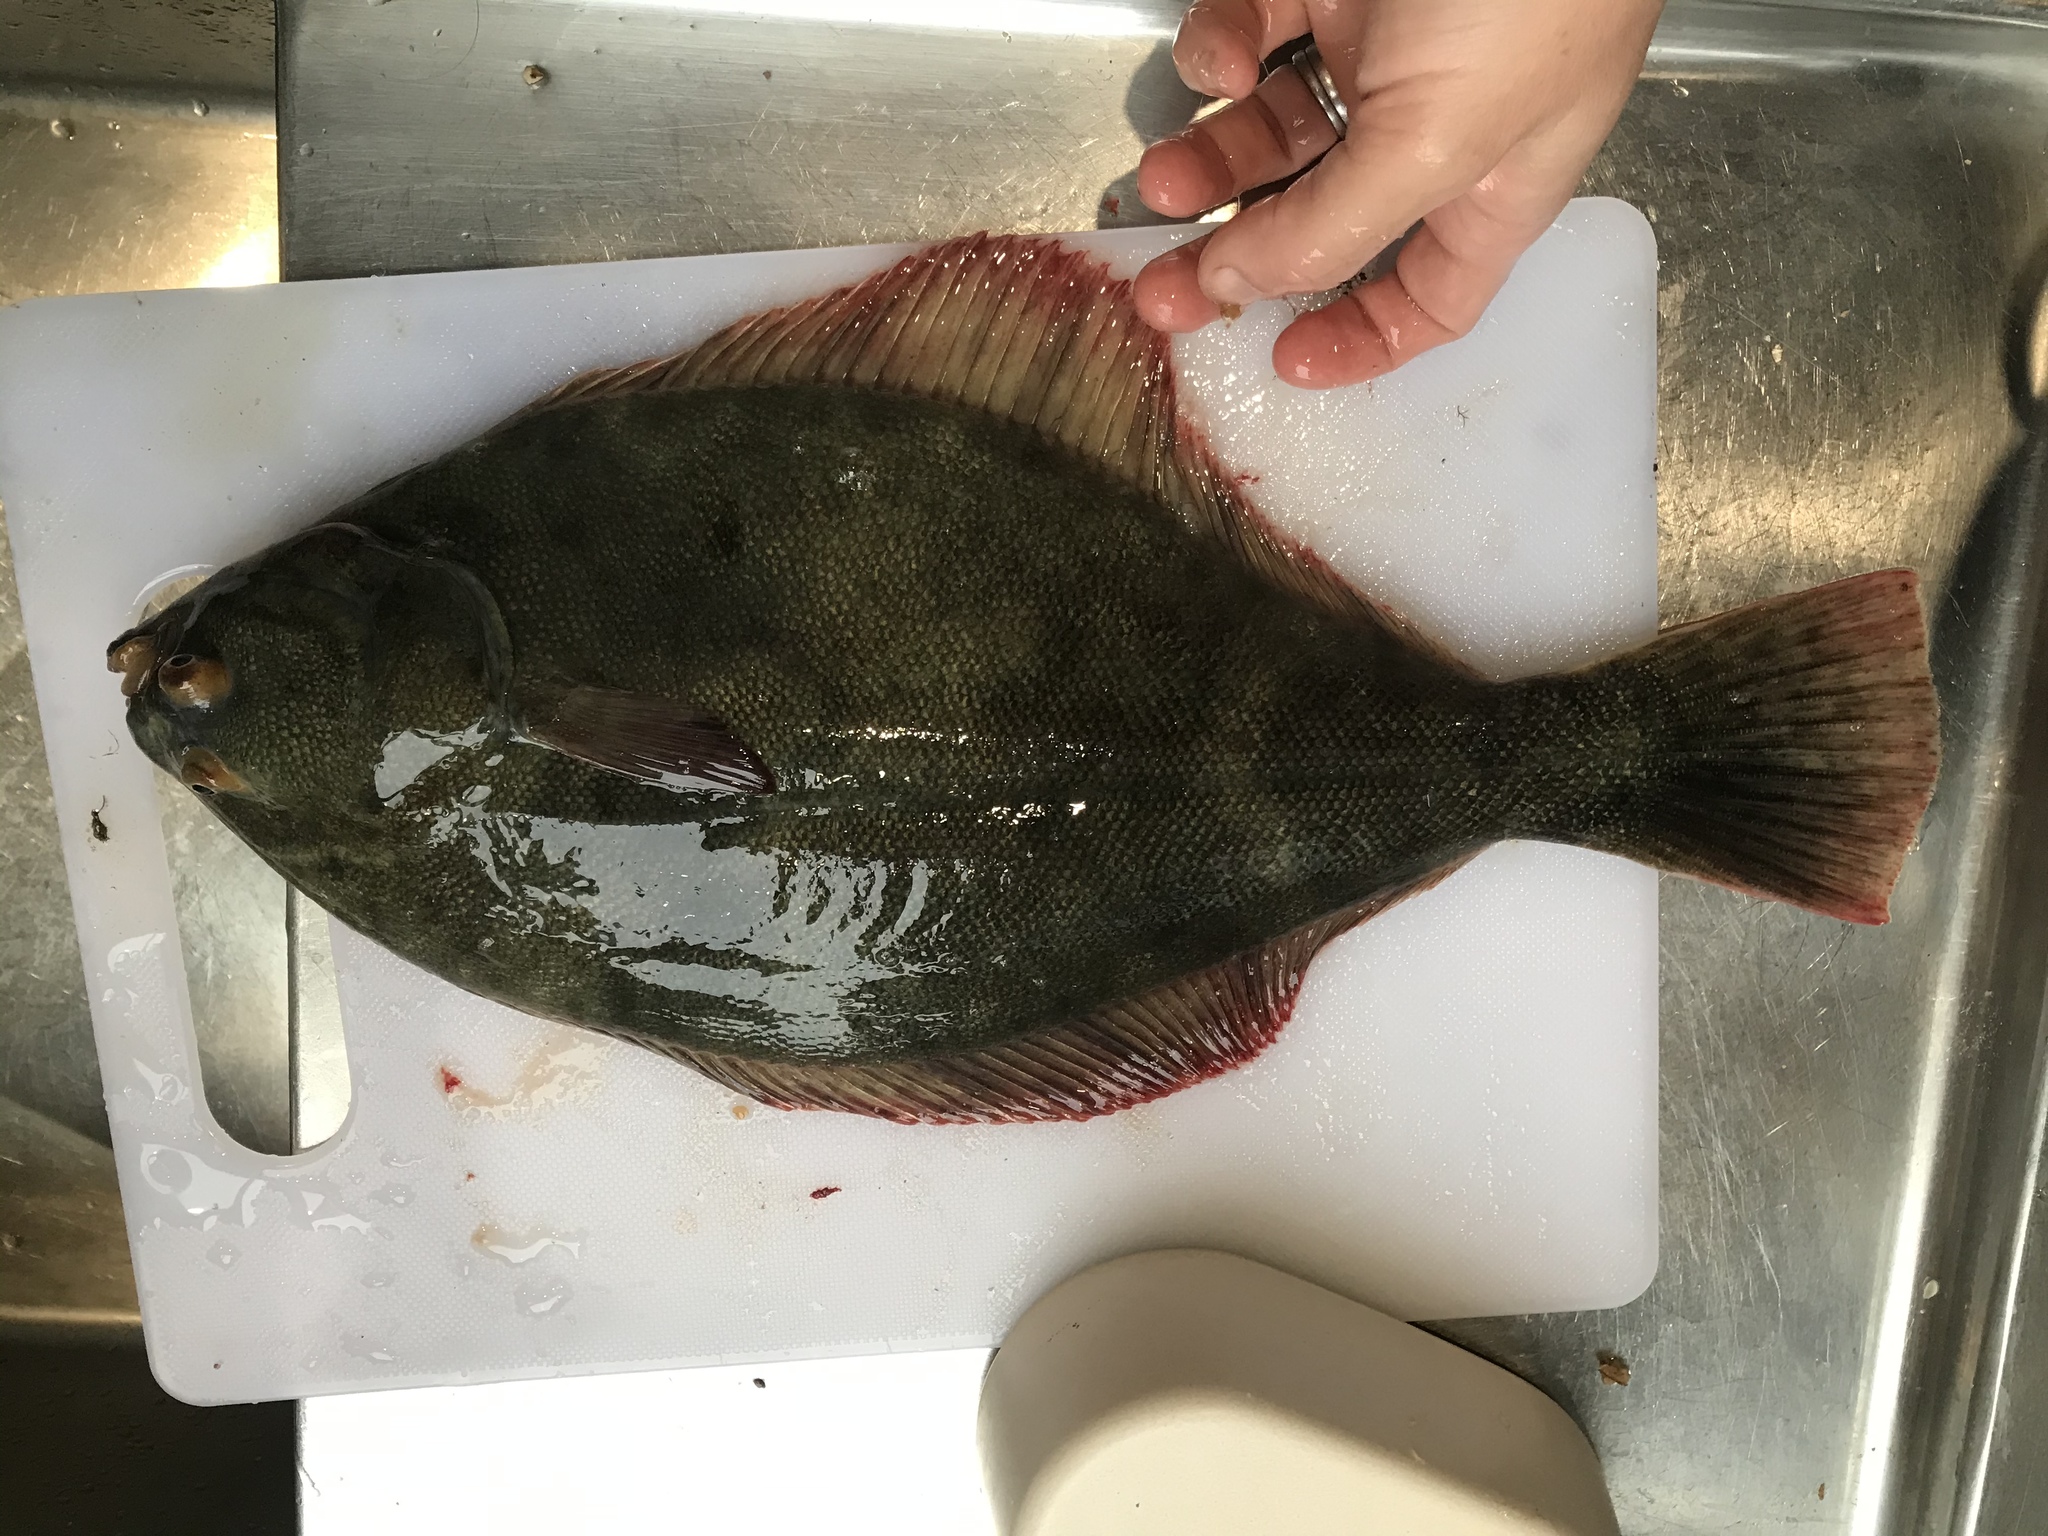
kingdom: Animalia
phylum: Chordata
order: Pleuronectiformes
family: Pleuronectidae
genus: Rhombosolea
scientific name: Rhombosolea leporina
